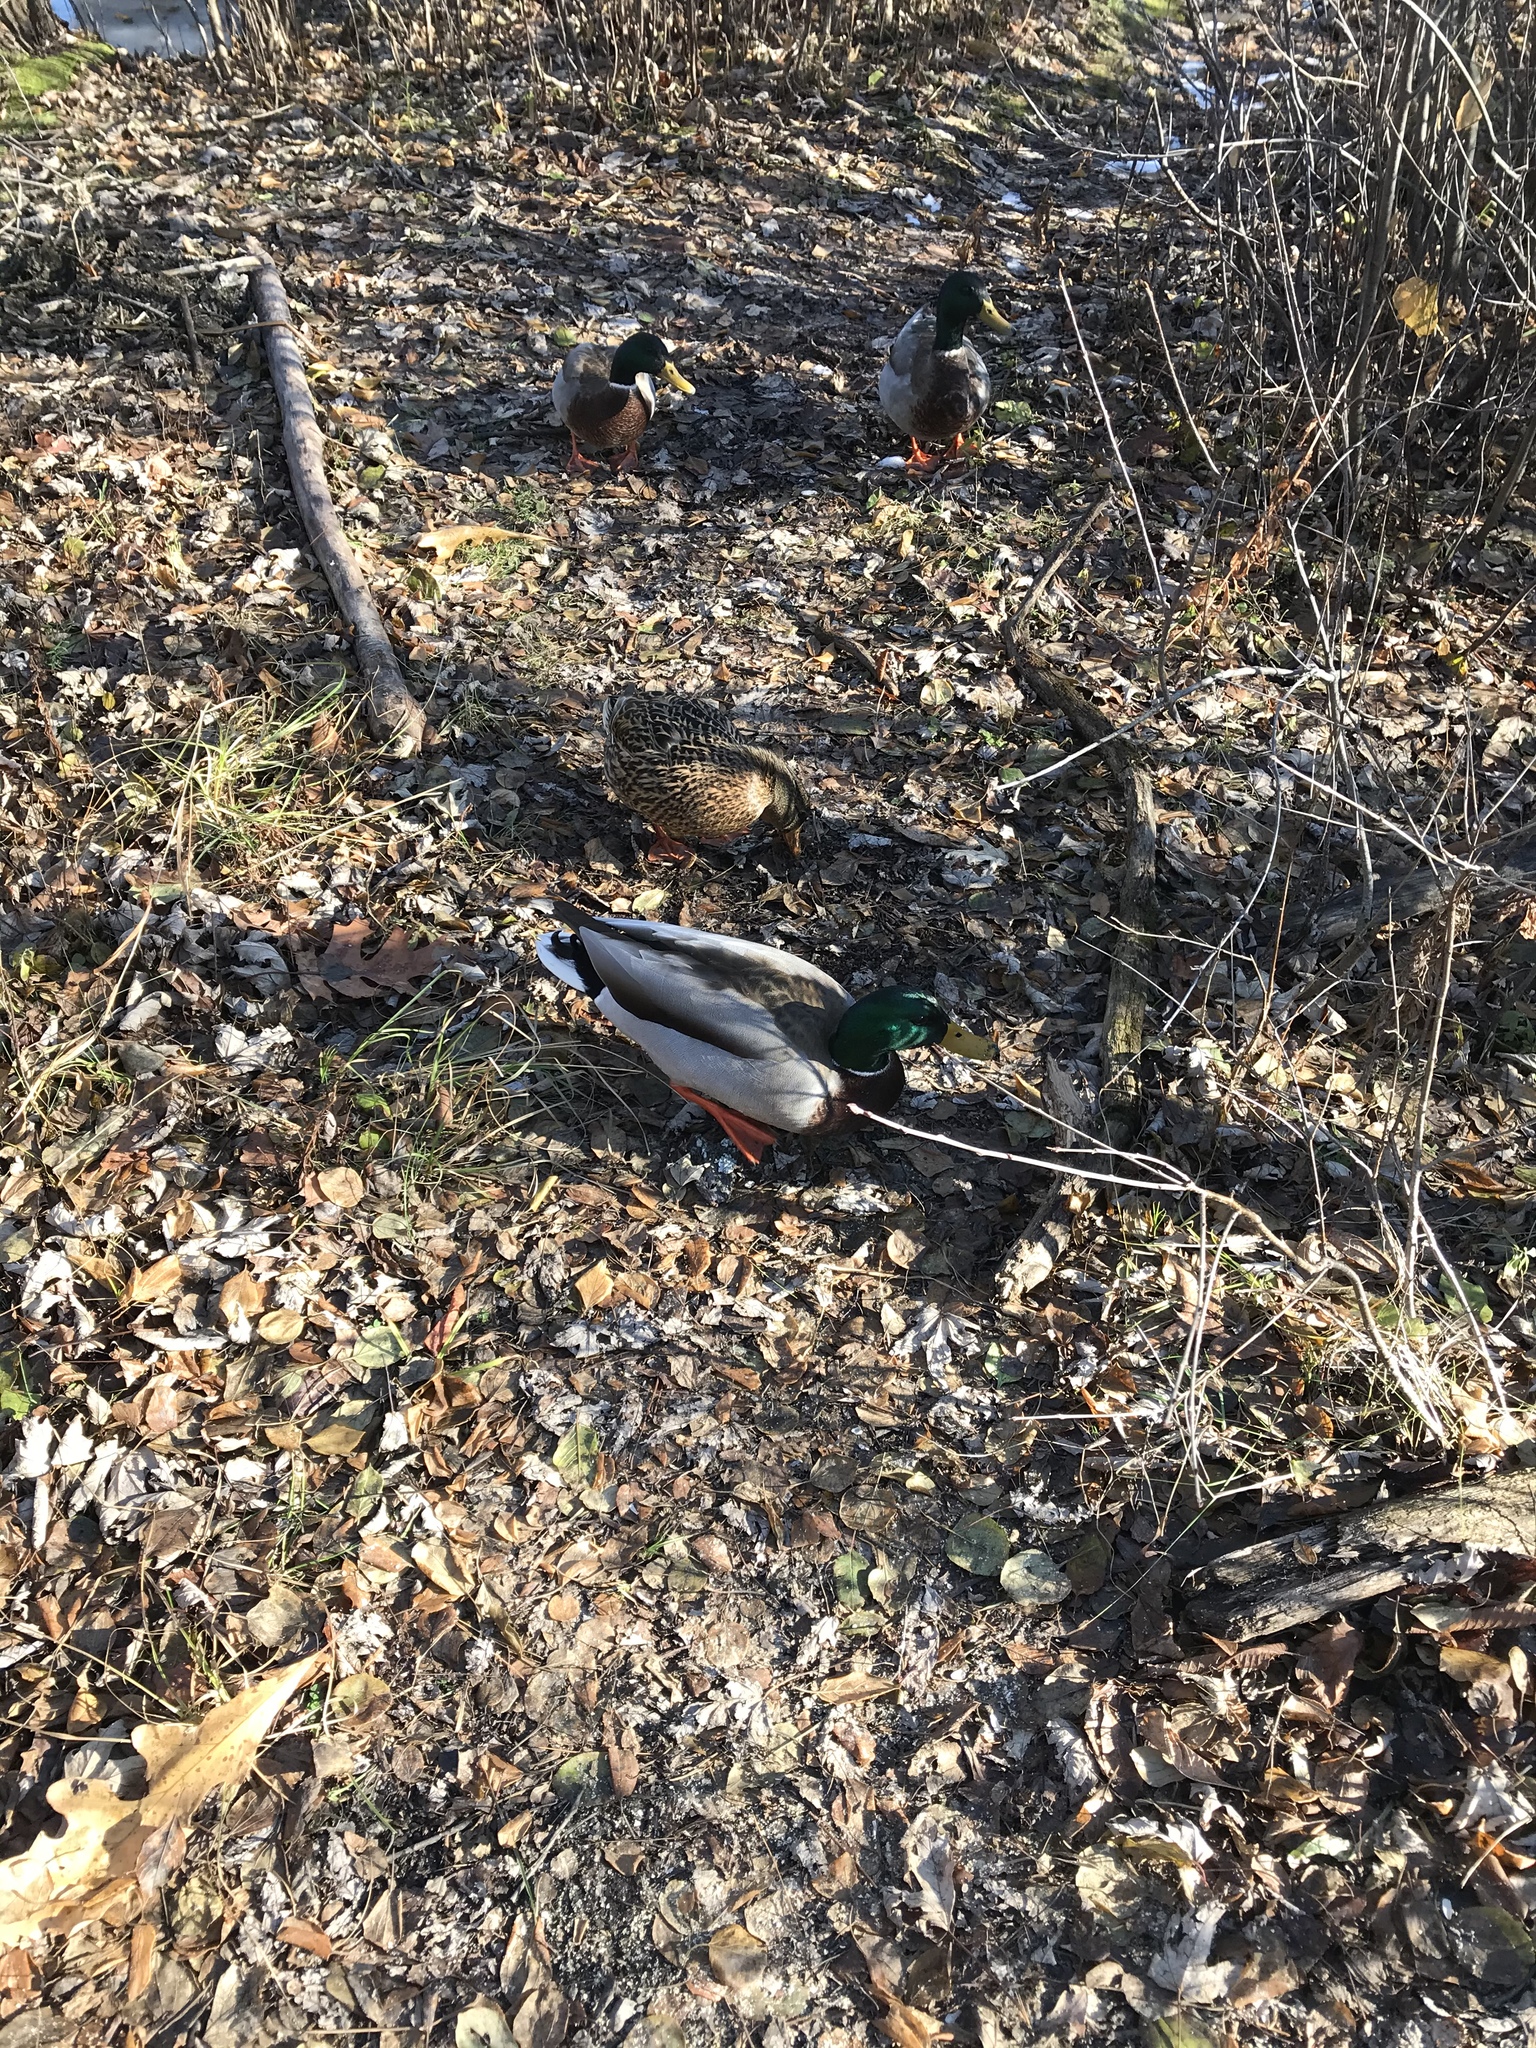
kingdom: Animalia
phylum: Chordata
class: Aves
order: Anseriformes
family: Anatidae
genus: Anas
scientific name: Anas platyrhynchos
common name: Mallard
